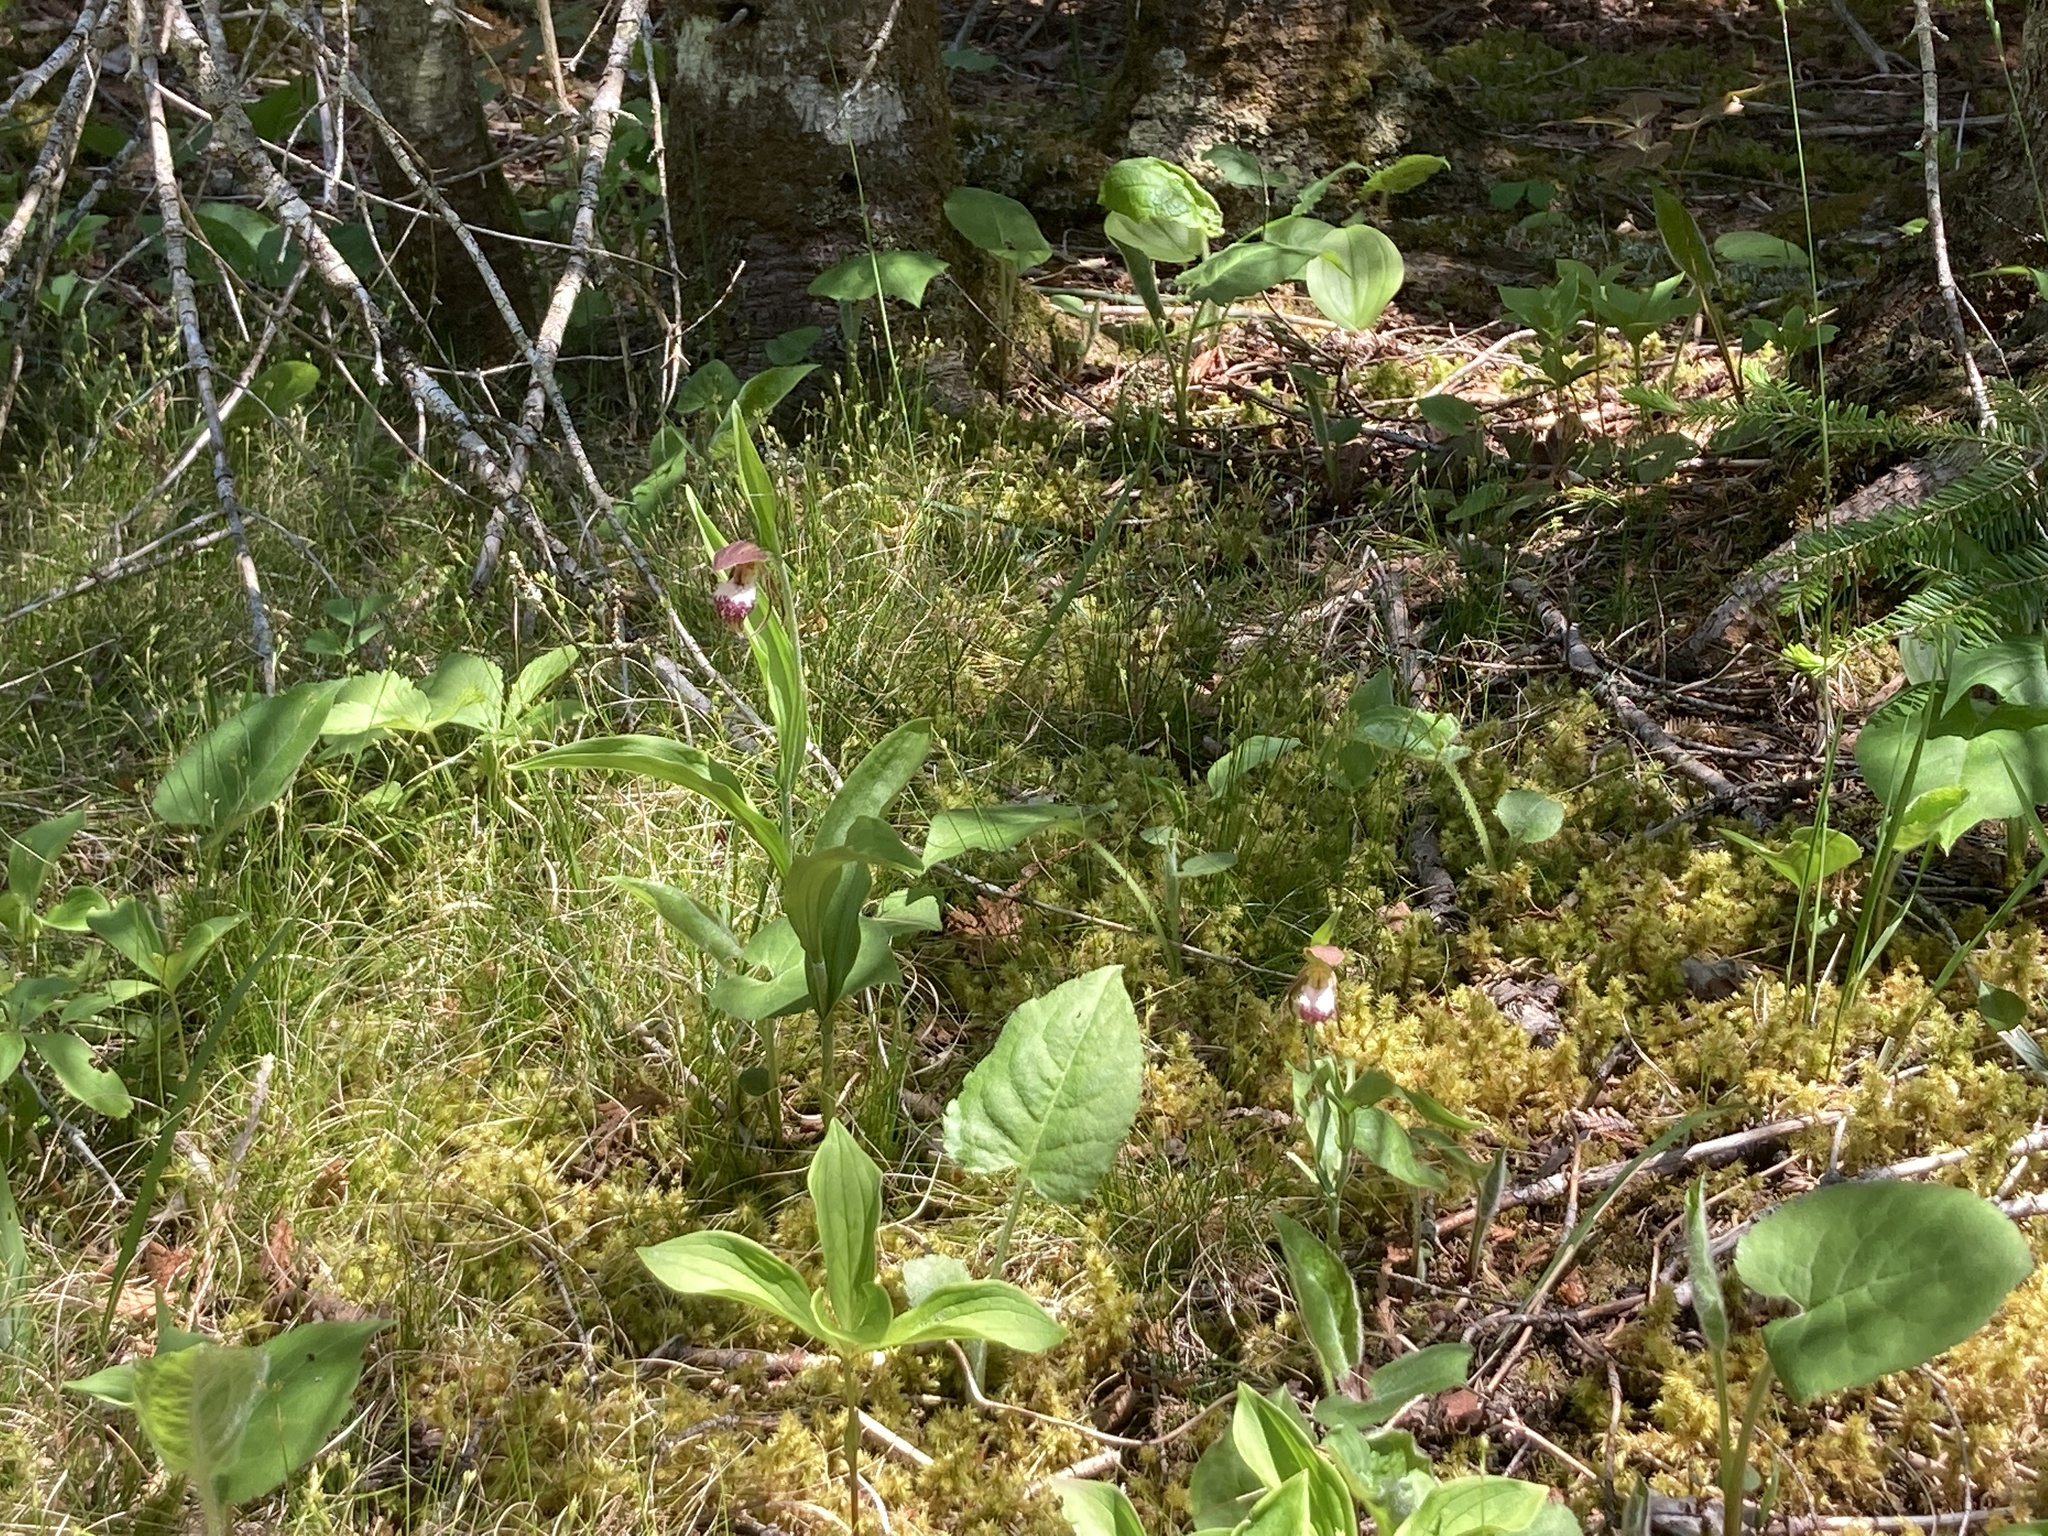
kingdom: Plantae
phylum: Tracheophyta
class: Liliopsida
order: Asparagales
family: Orchidaceae
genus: Cypripedium
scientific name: Cypripedium arietinum
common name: Ram's-head
